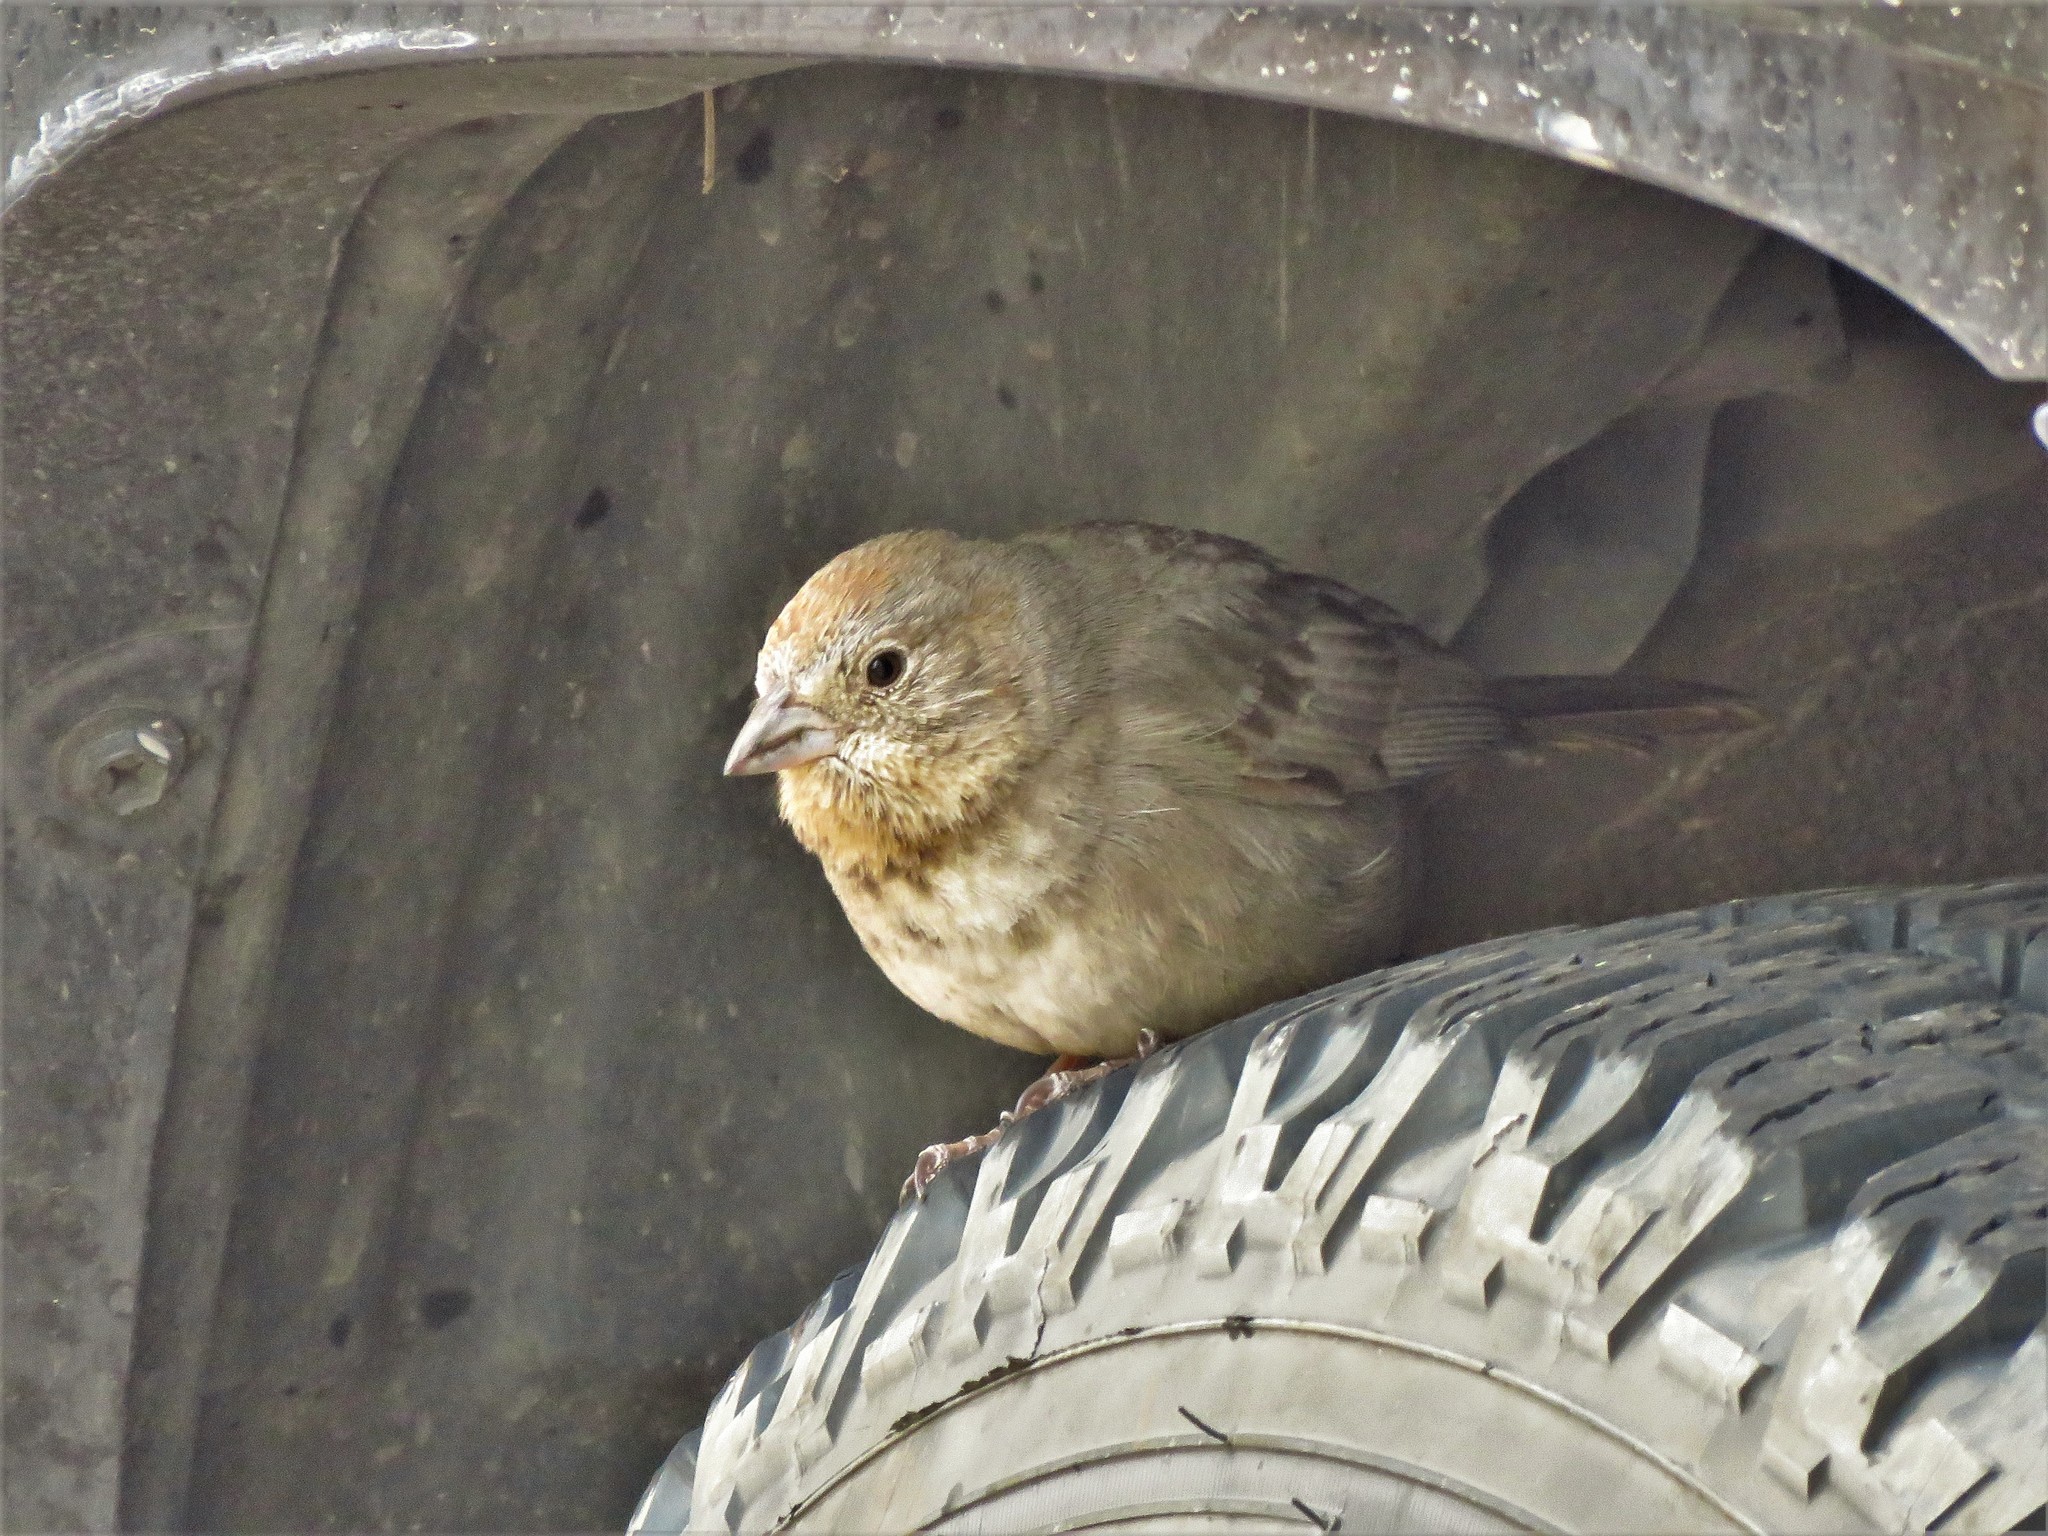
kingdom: Animalia
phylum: Chordata
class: Aves
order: Passeriformes
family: Passerellidae
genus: Melozone
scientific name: Melozone fusca
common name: Canyon towhee
